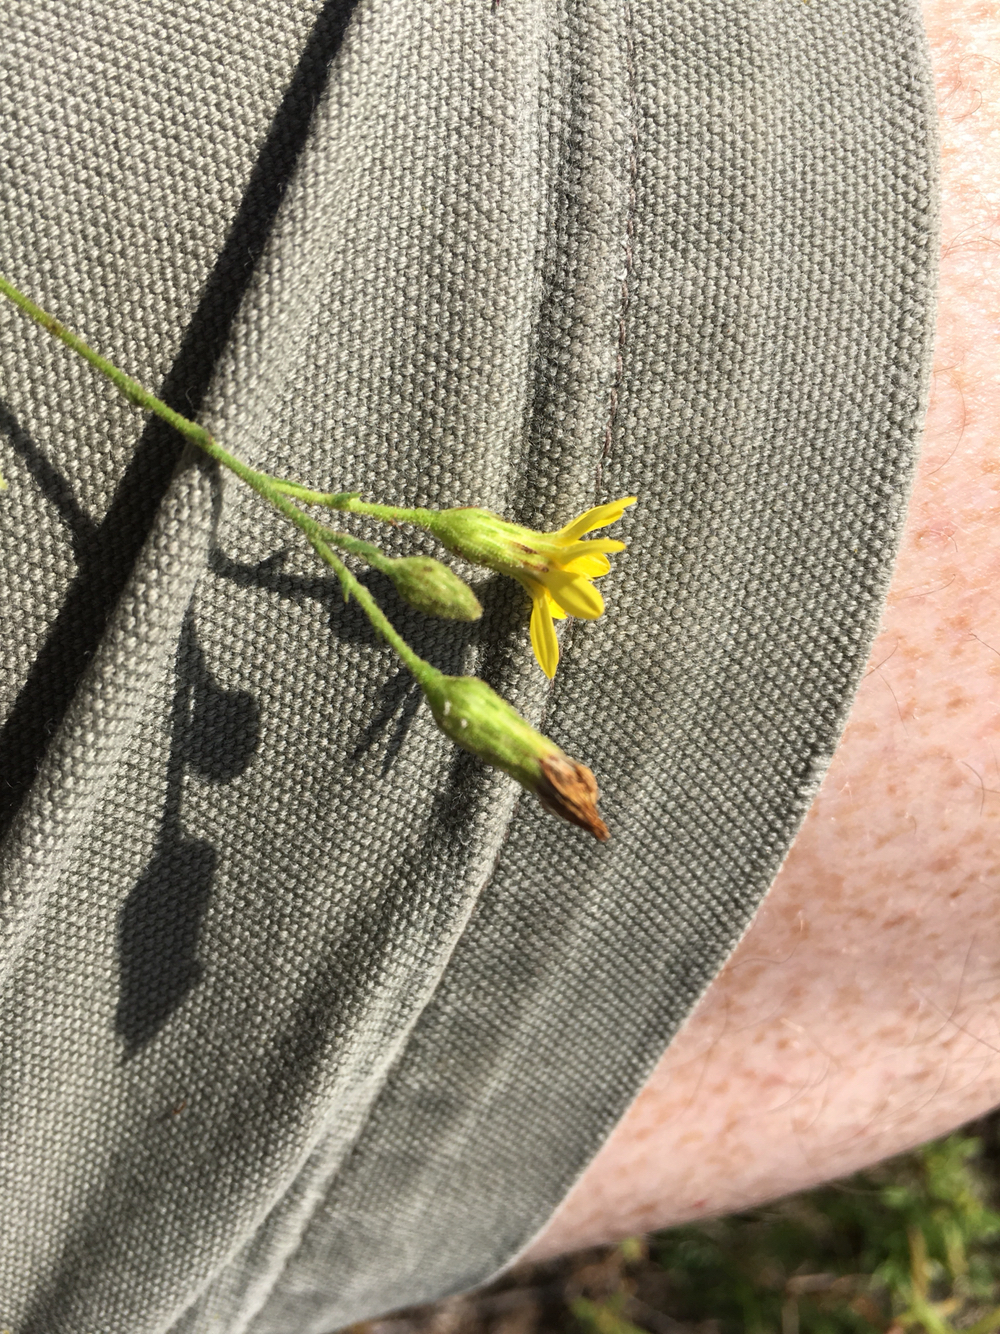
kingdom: Plantae
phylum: Tracheophyta
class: Magnoliopsida
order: Asterales
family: Asteraceae
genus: Pityopsis
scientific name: Pityopsis aspera
